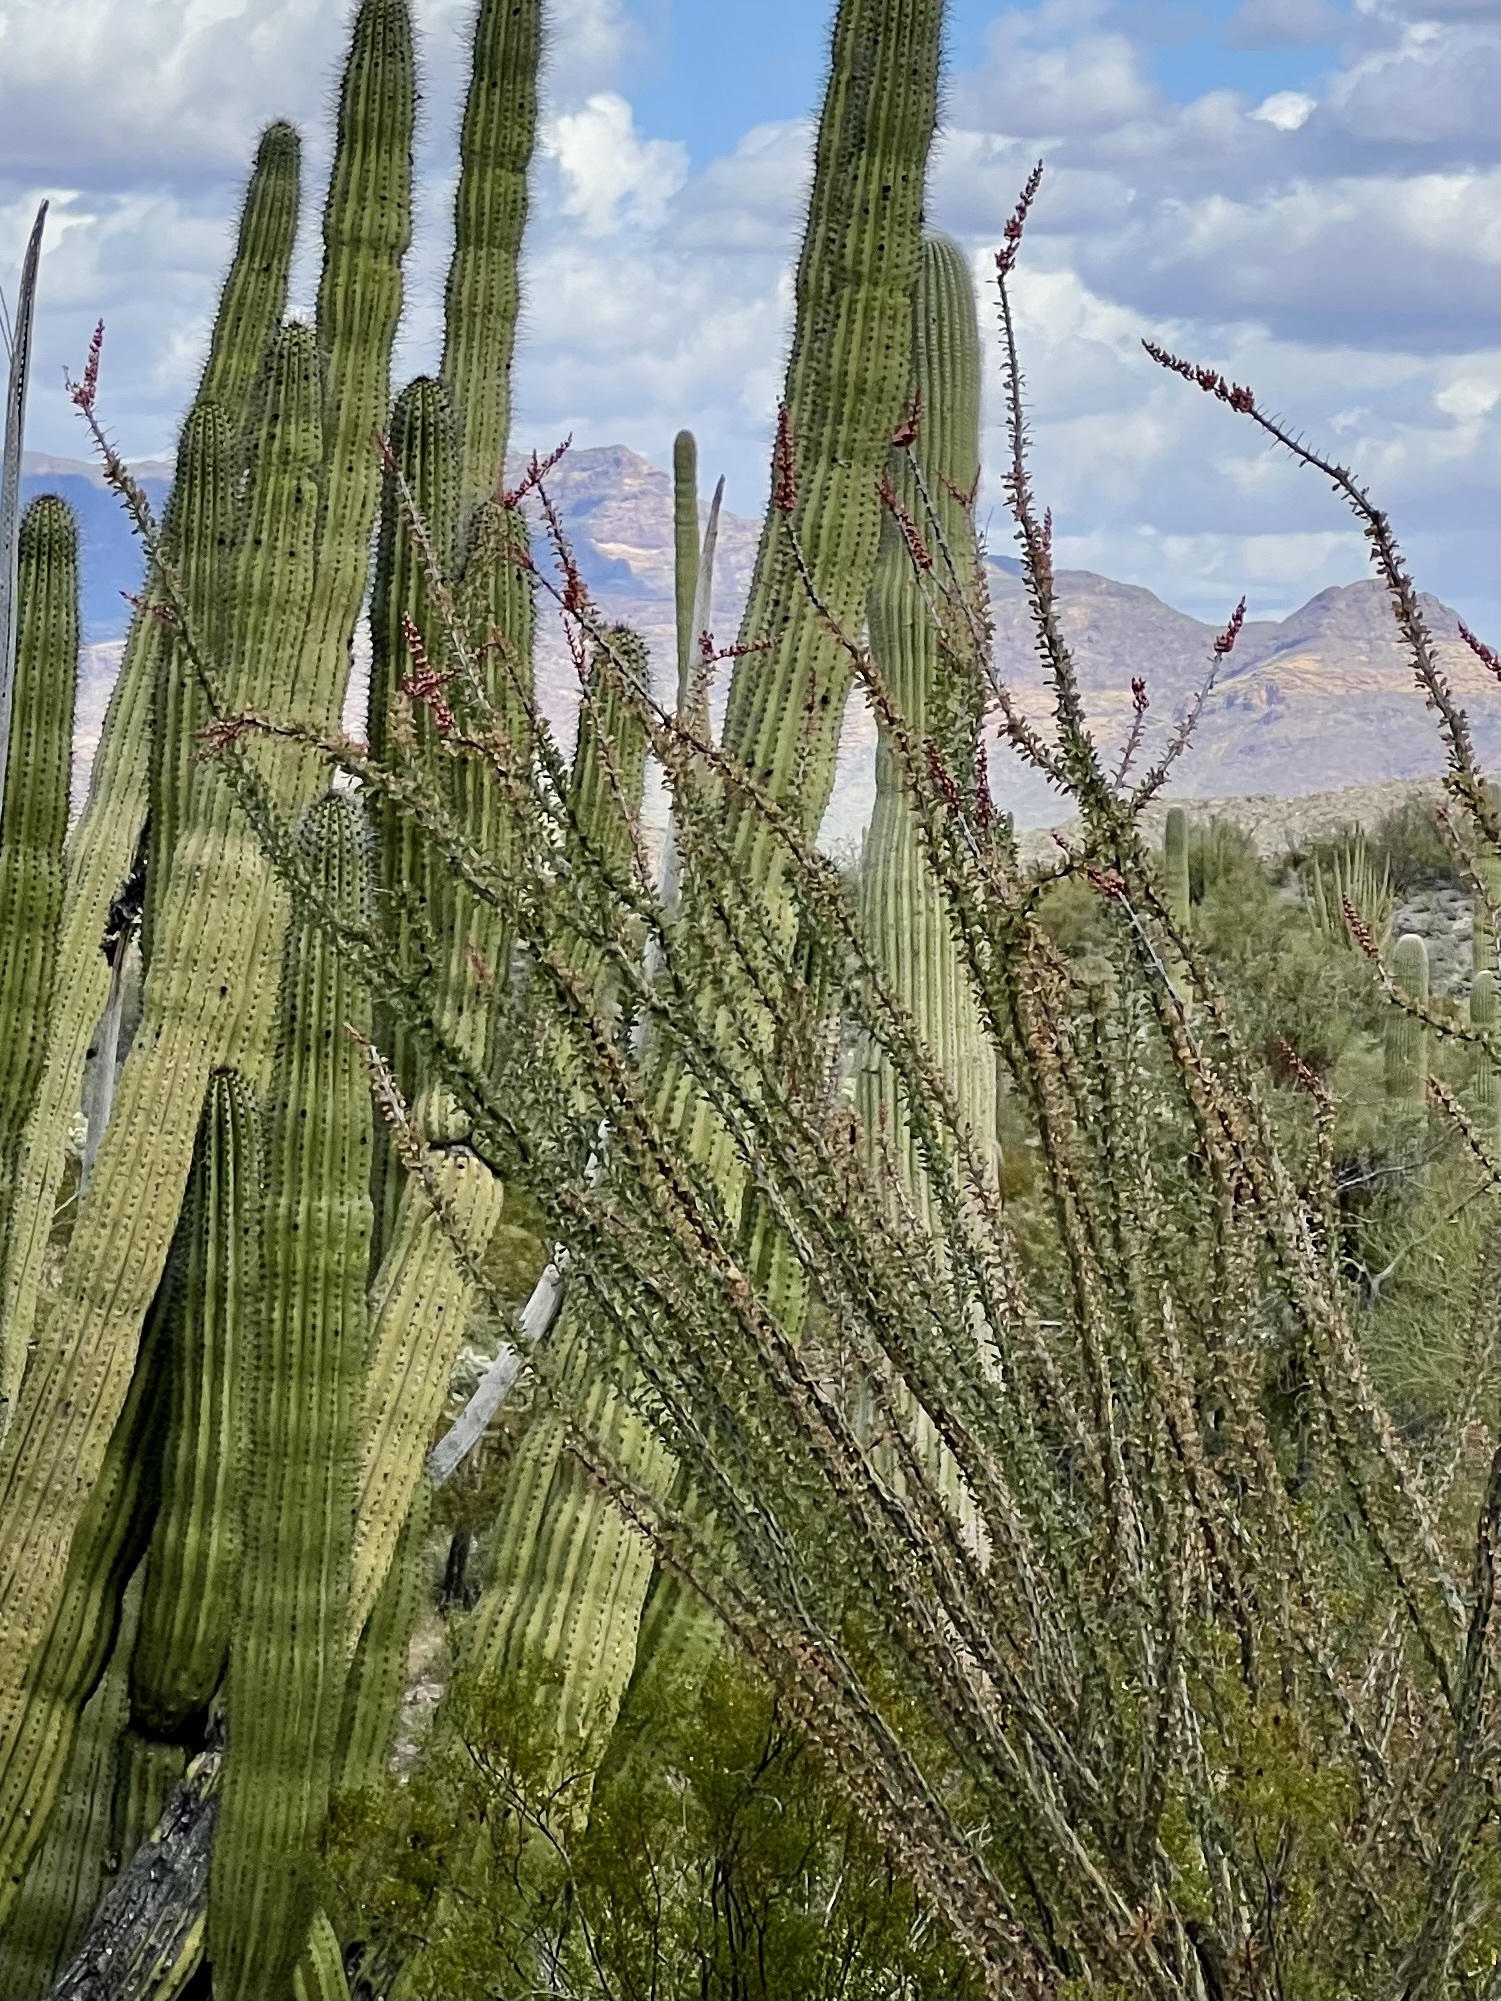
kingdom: Plantae
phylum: Tracheophyta
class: Magnoliopsida
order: Ericales
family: Fouquieriaceae
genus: Fouquieria
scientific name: Fouquieria splendens
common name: Vine-cactus
